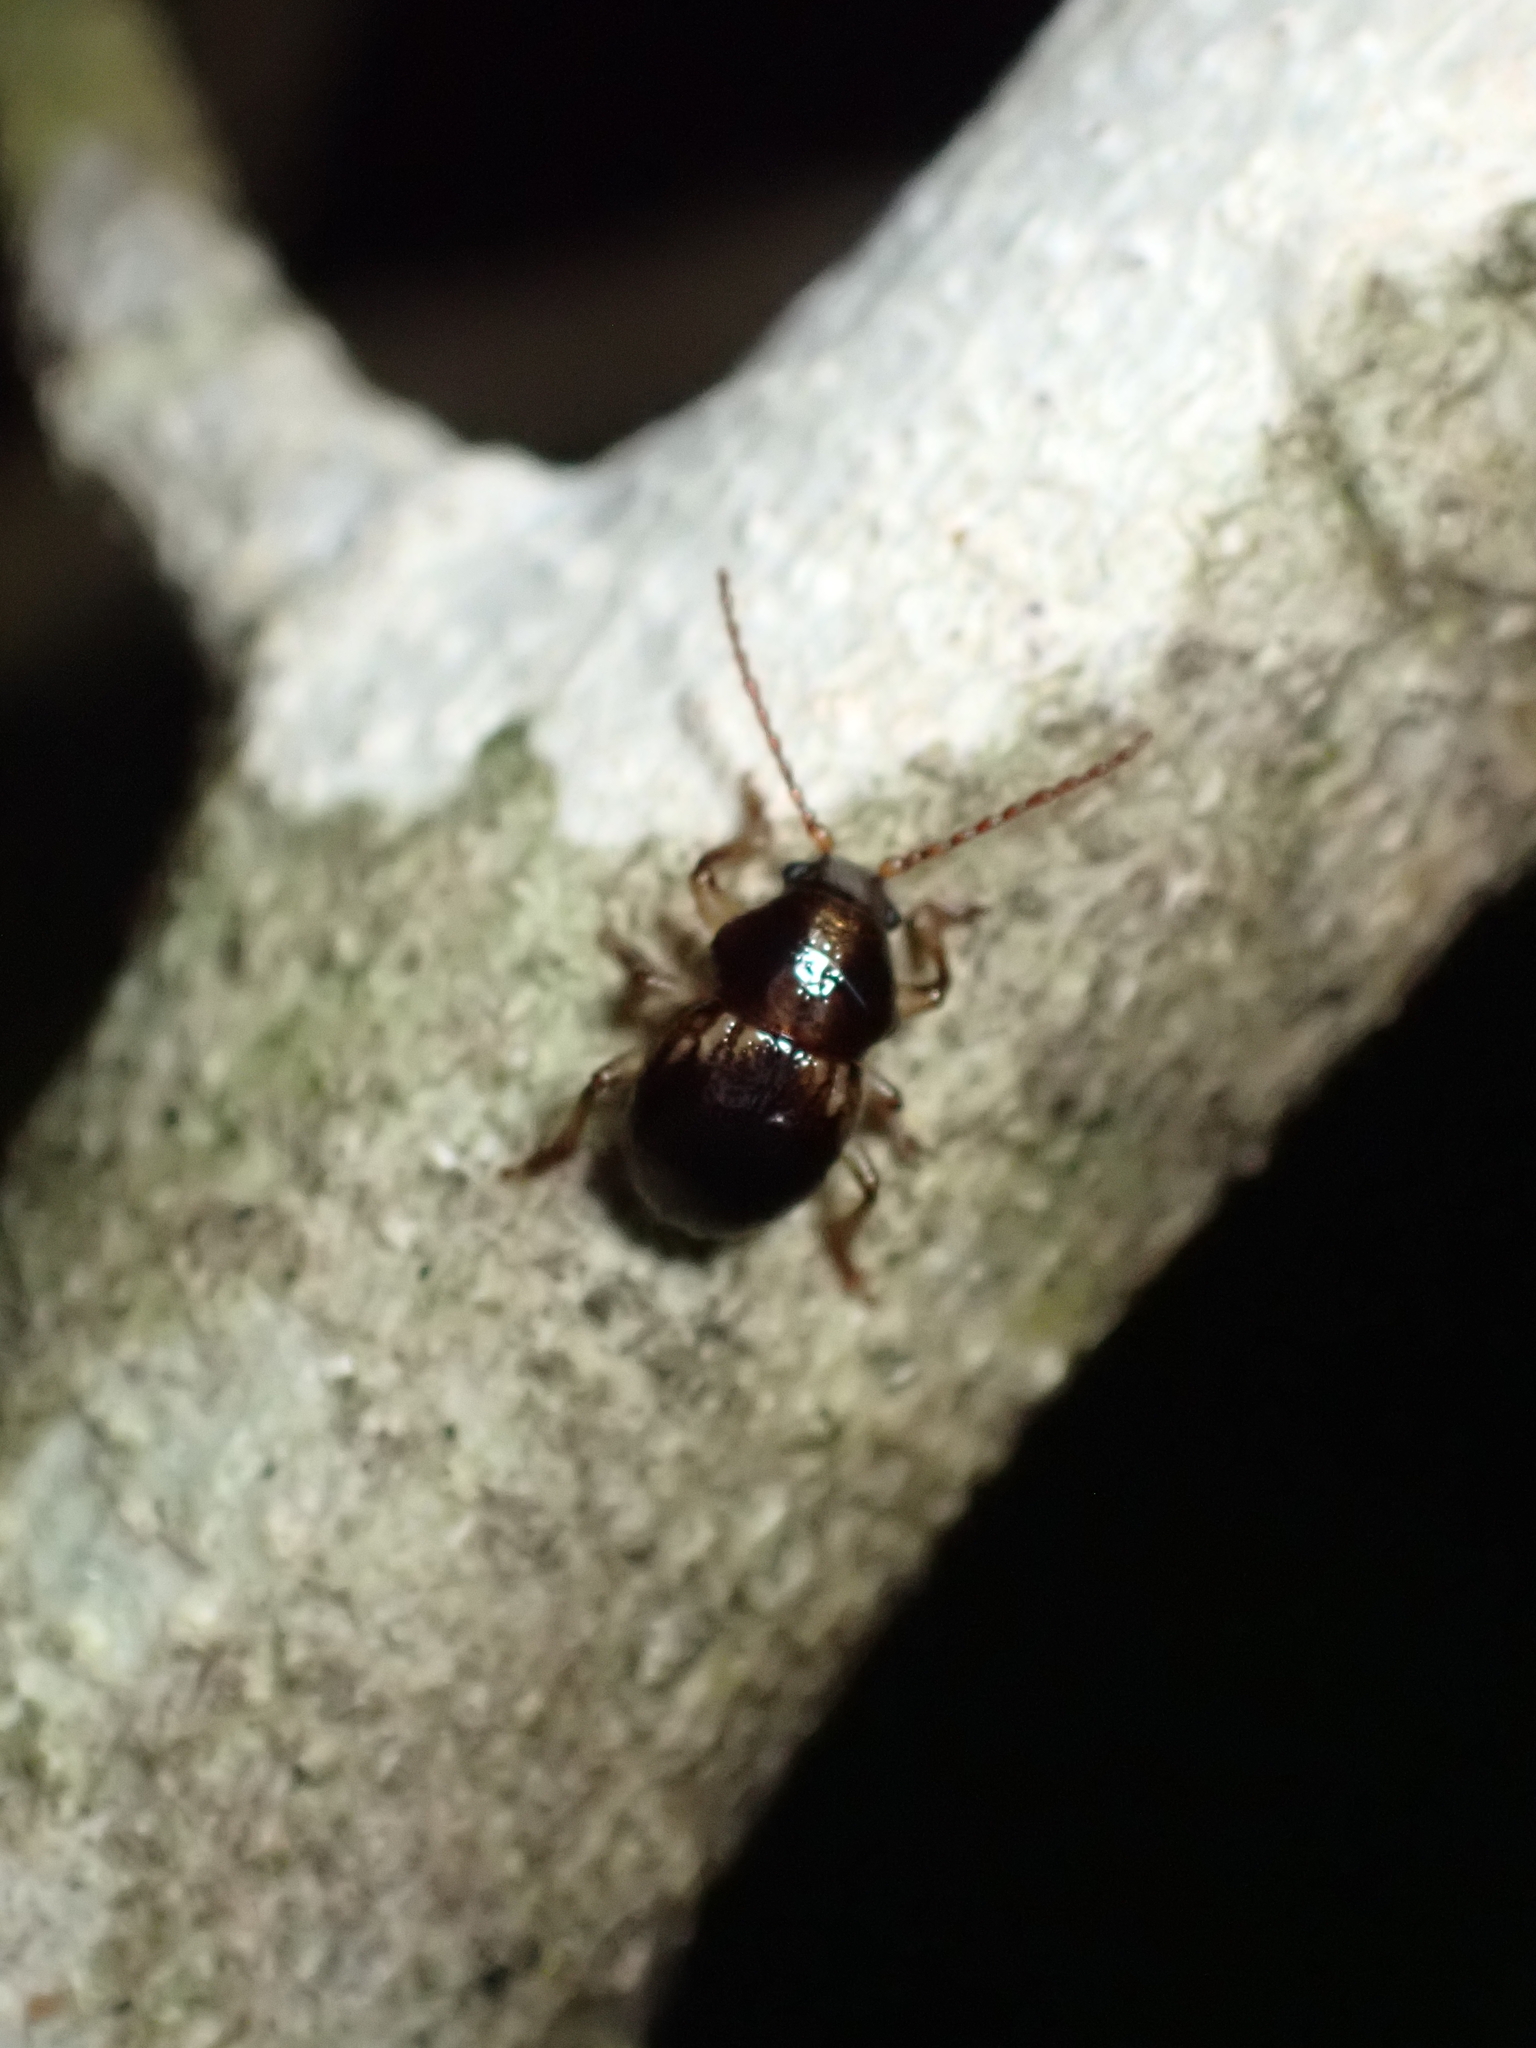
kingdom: Animalia
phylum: Arthropoda
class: Insecta
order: Coleoptera
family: Chrysomelidae
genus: Peniticus
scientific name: Peniticus suffusus
